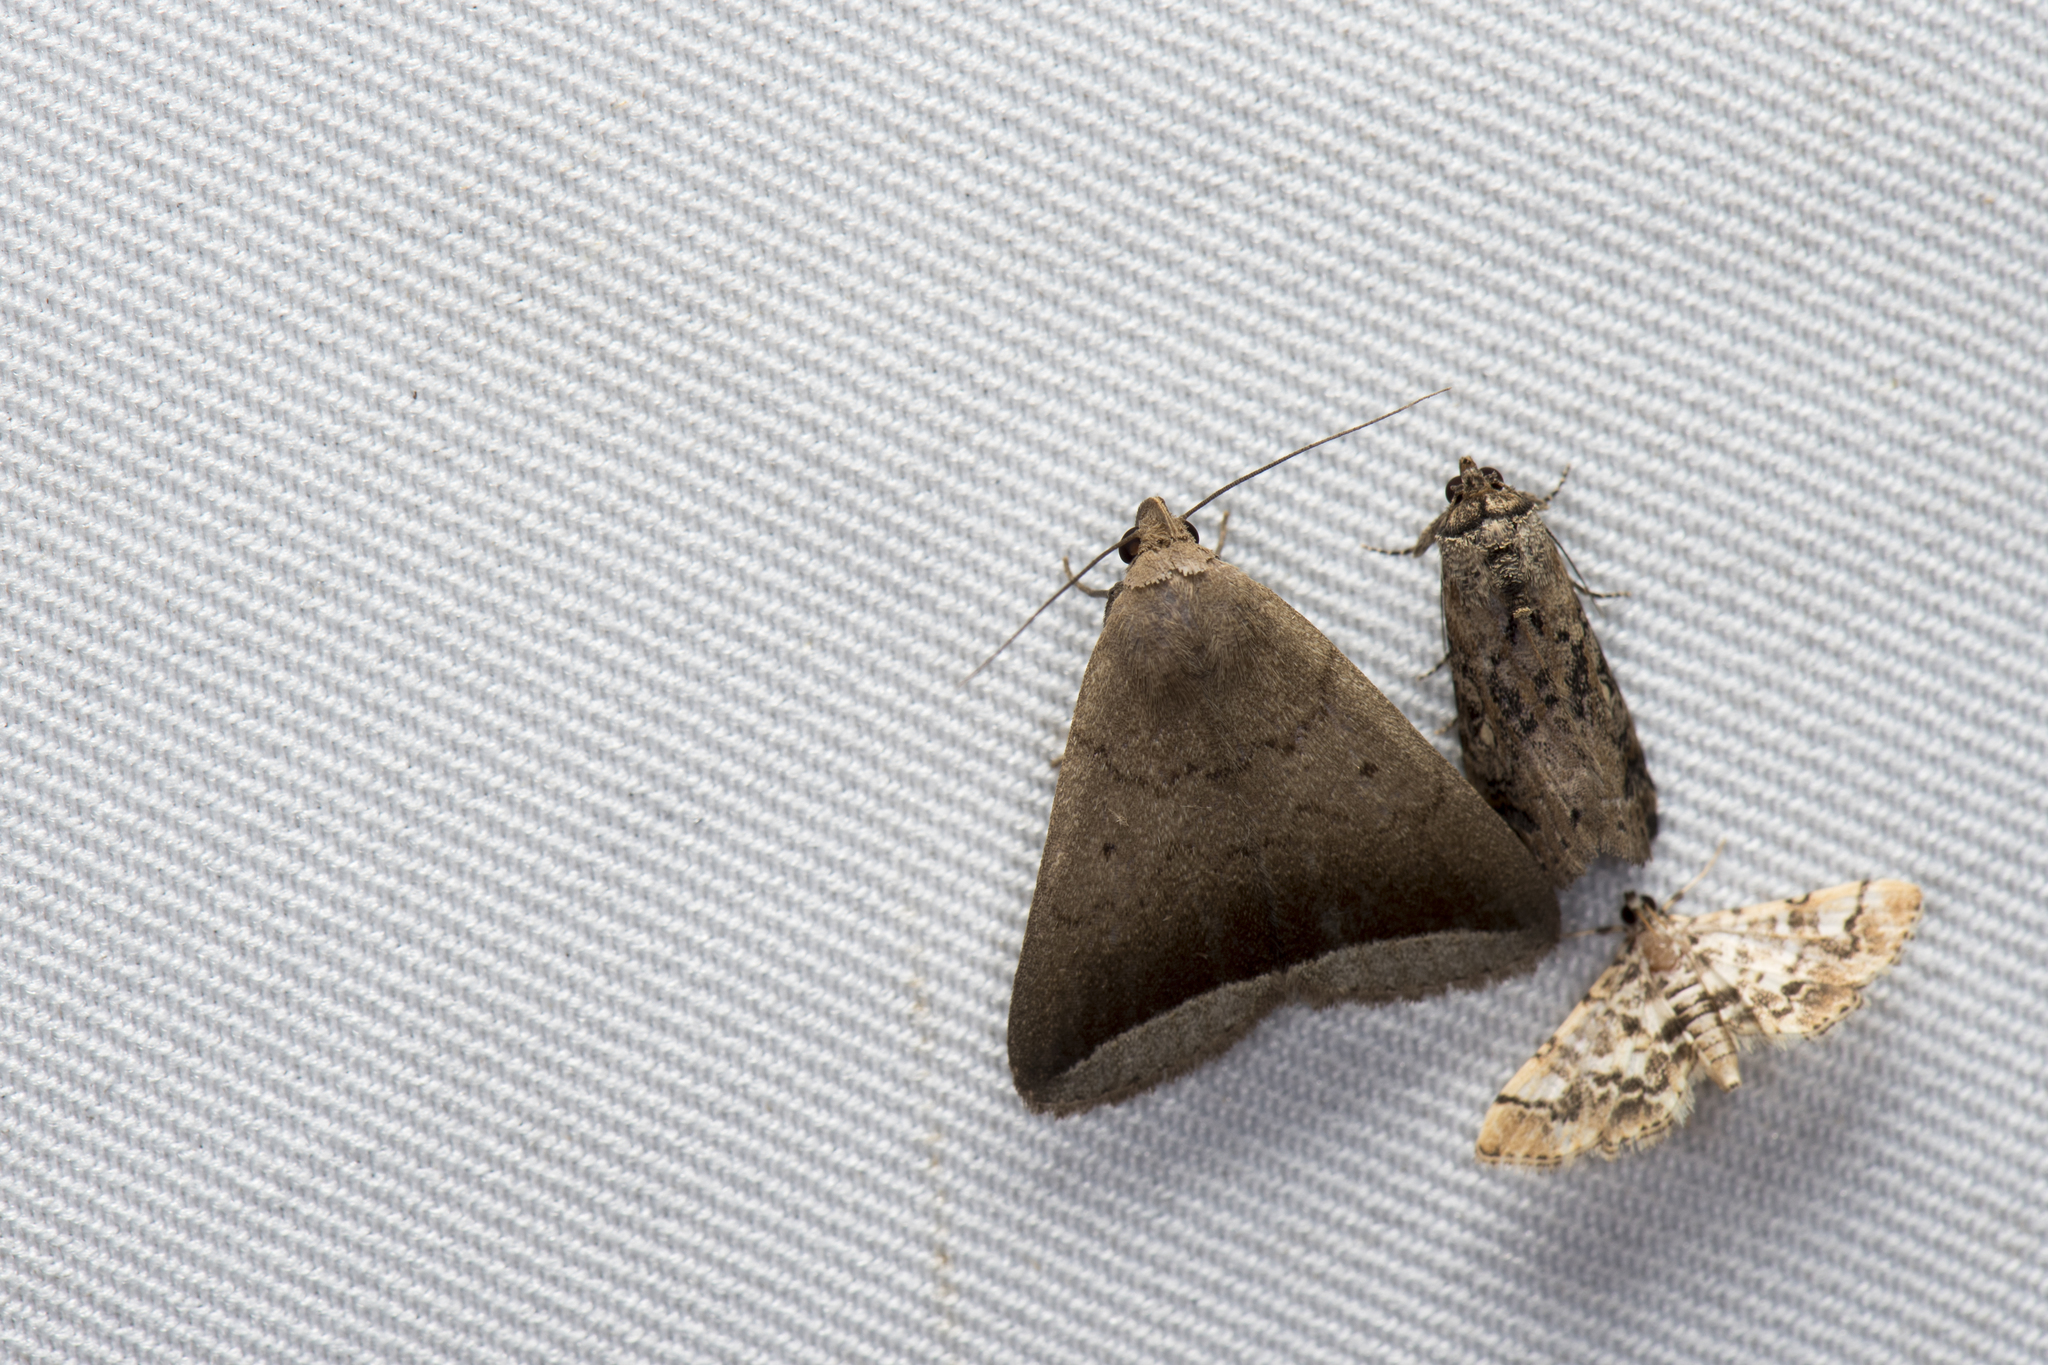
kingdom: Animalia
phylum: Arthropoda
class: Insecta
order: Lepidoptera
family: Erebidae
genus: Simplicia
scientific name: Simplicia bimarginata
